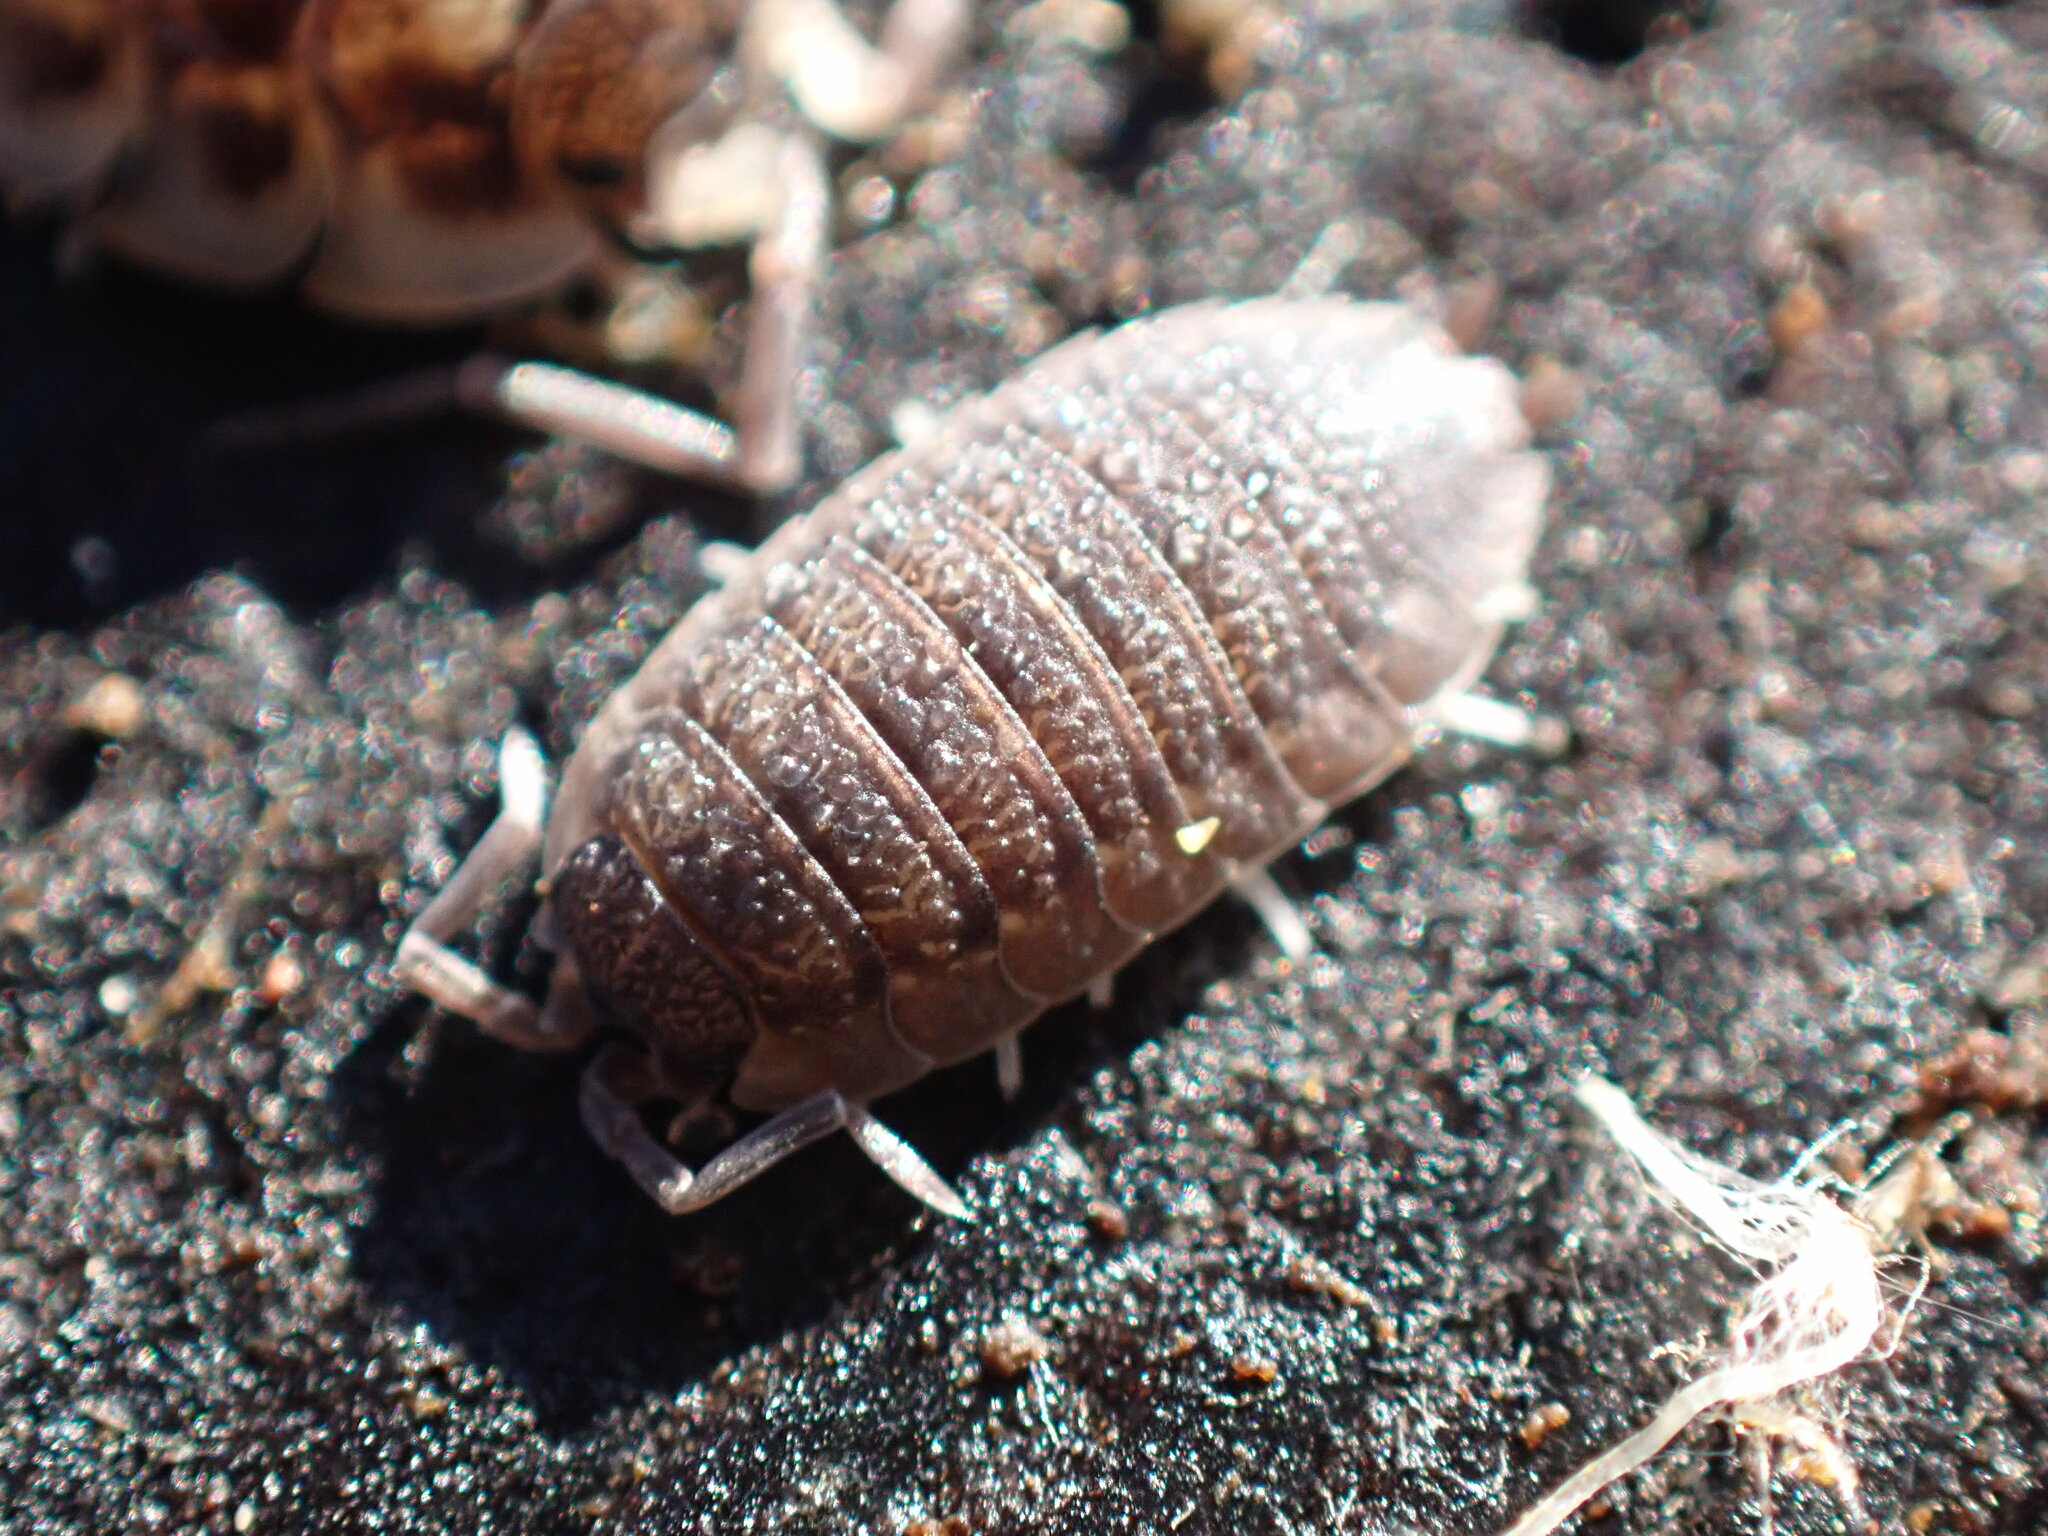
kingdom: Animalia
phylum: Arthropoda
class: Malacostraca
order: Isopoda
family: Porcellionidae
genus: Porcellio
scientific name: Porcellio scaber
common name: Common rough woodlouse
